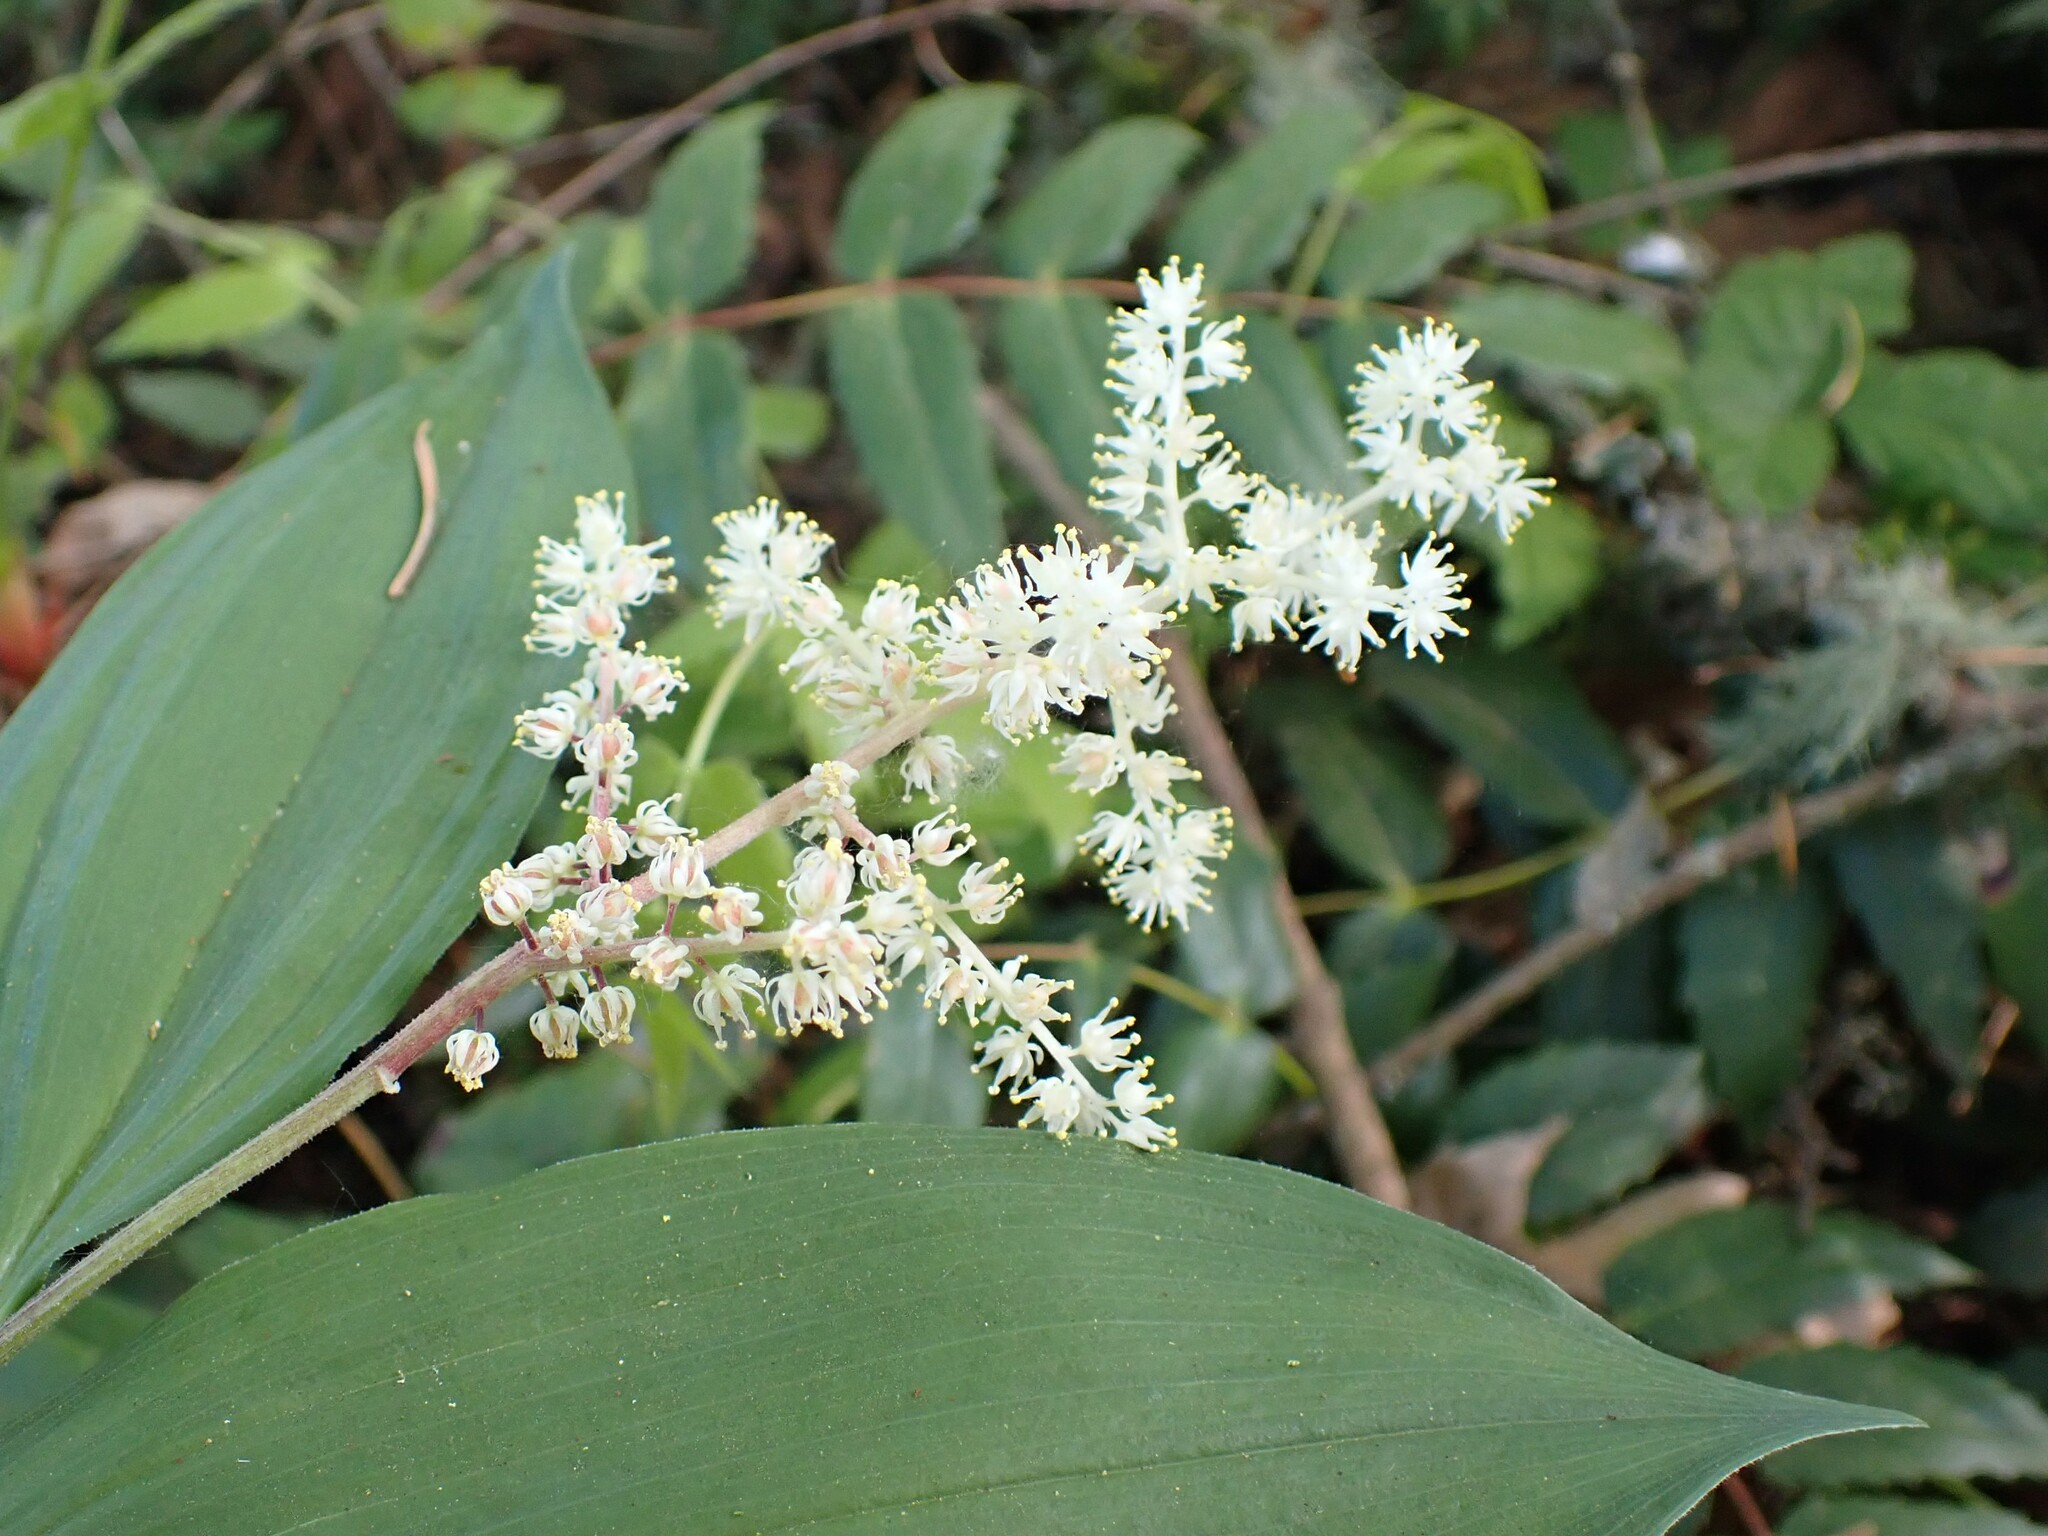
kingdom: Plantae
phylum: Tracheophyta
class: Liliopsida
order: Asparagales
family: Asparagaceae
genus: Maianthemum
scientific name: Maianthemum racemosum
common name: False spikenard
